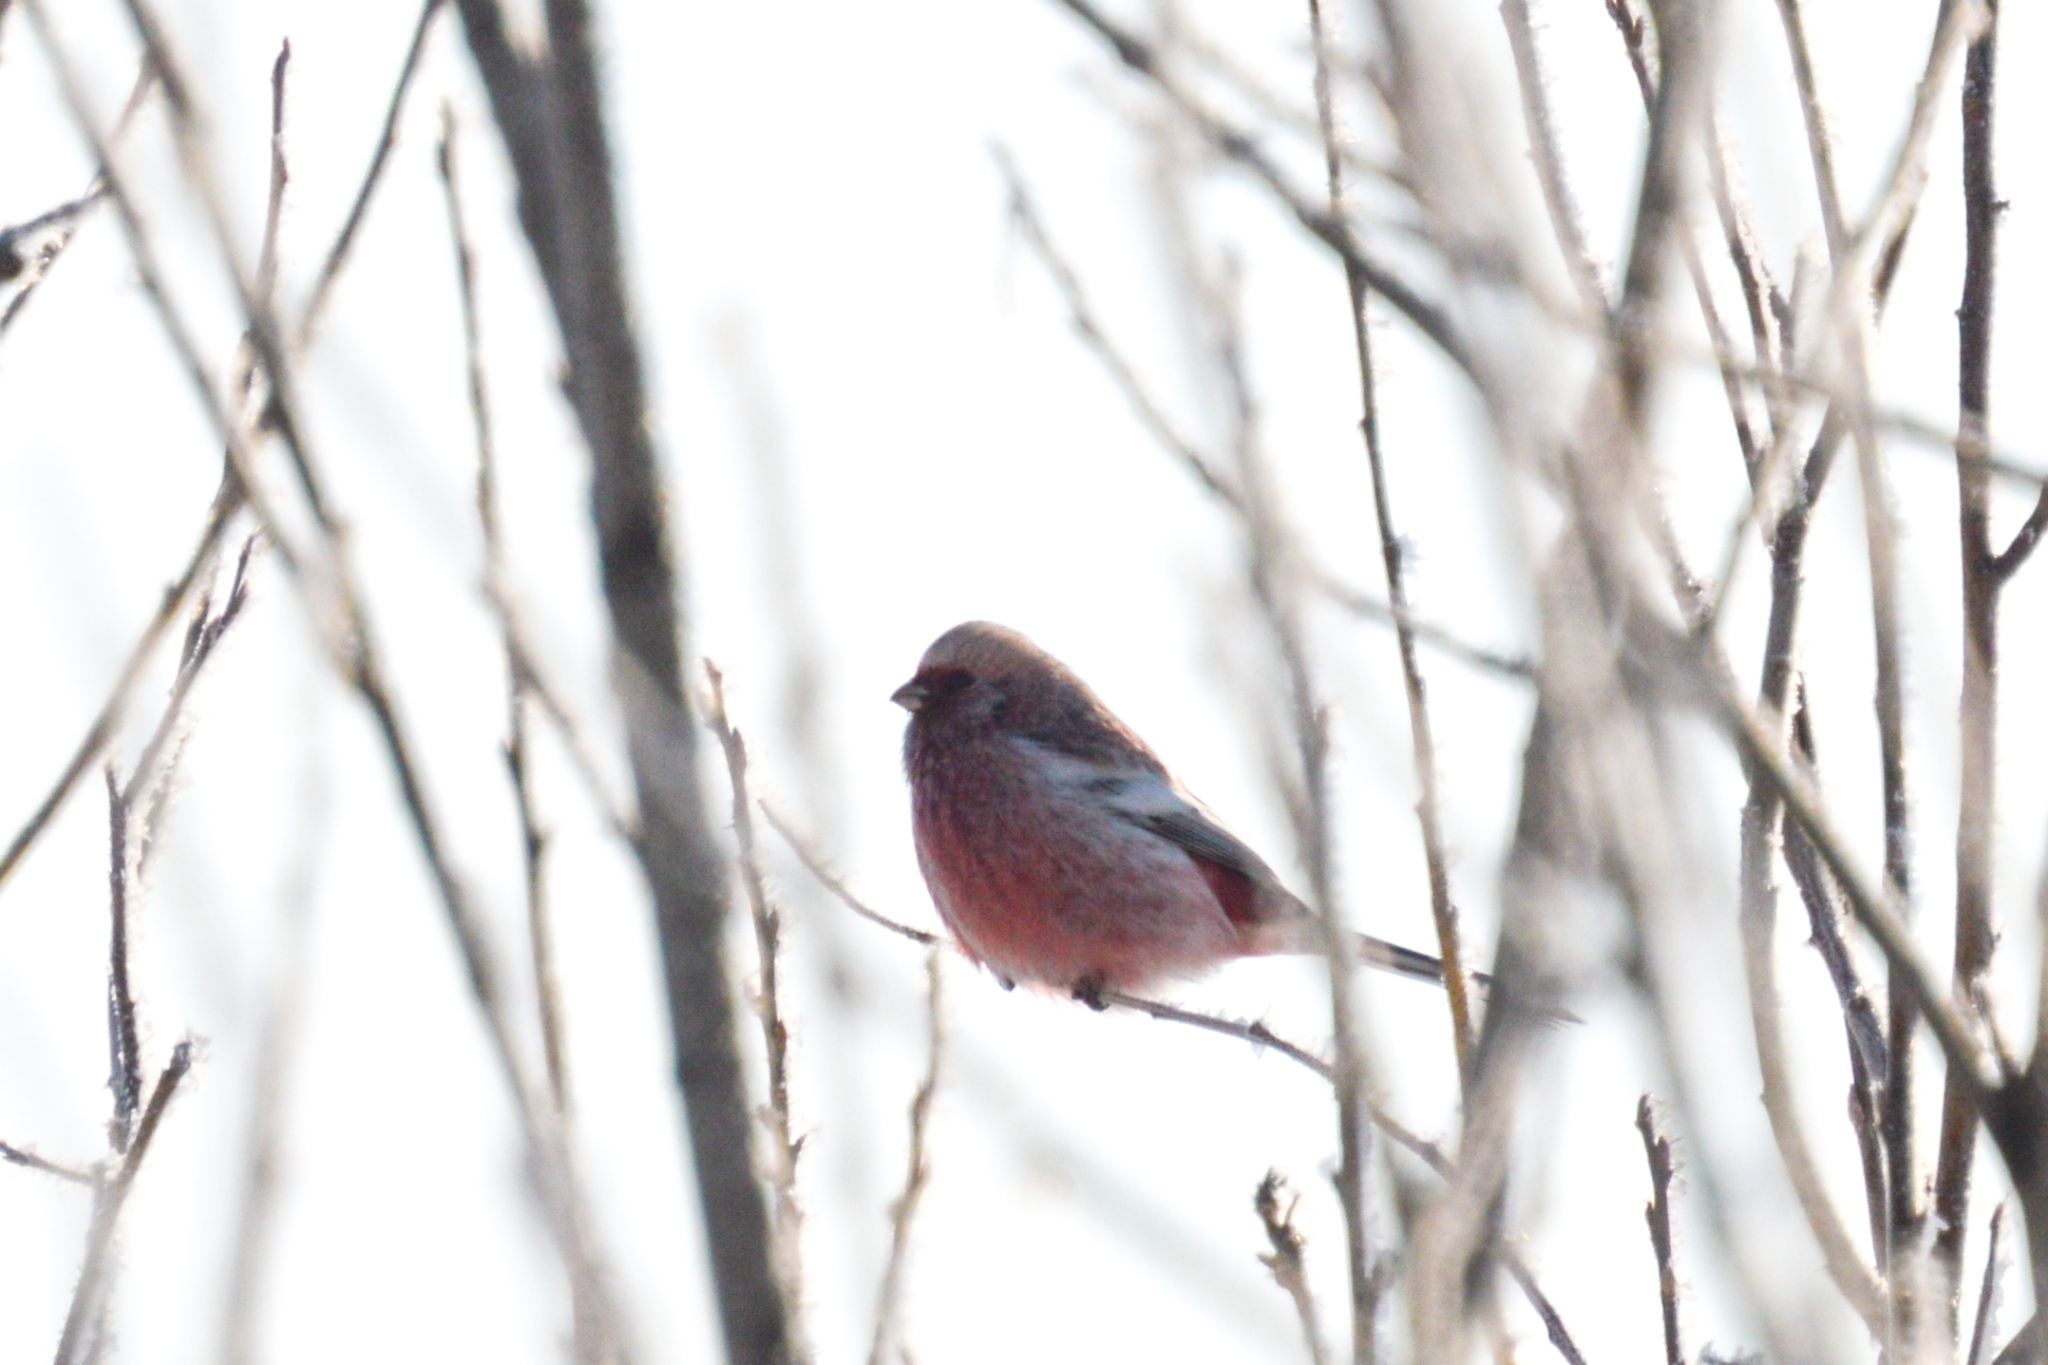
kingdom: Animalia
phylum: Chordata
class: Aves
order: Passeriformes
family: Fringillidae
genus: Carpodacus
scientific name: Carpodacus sibiricus
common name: Long-tailed rosefinch
